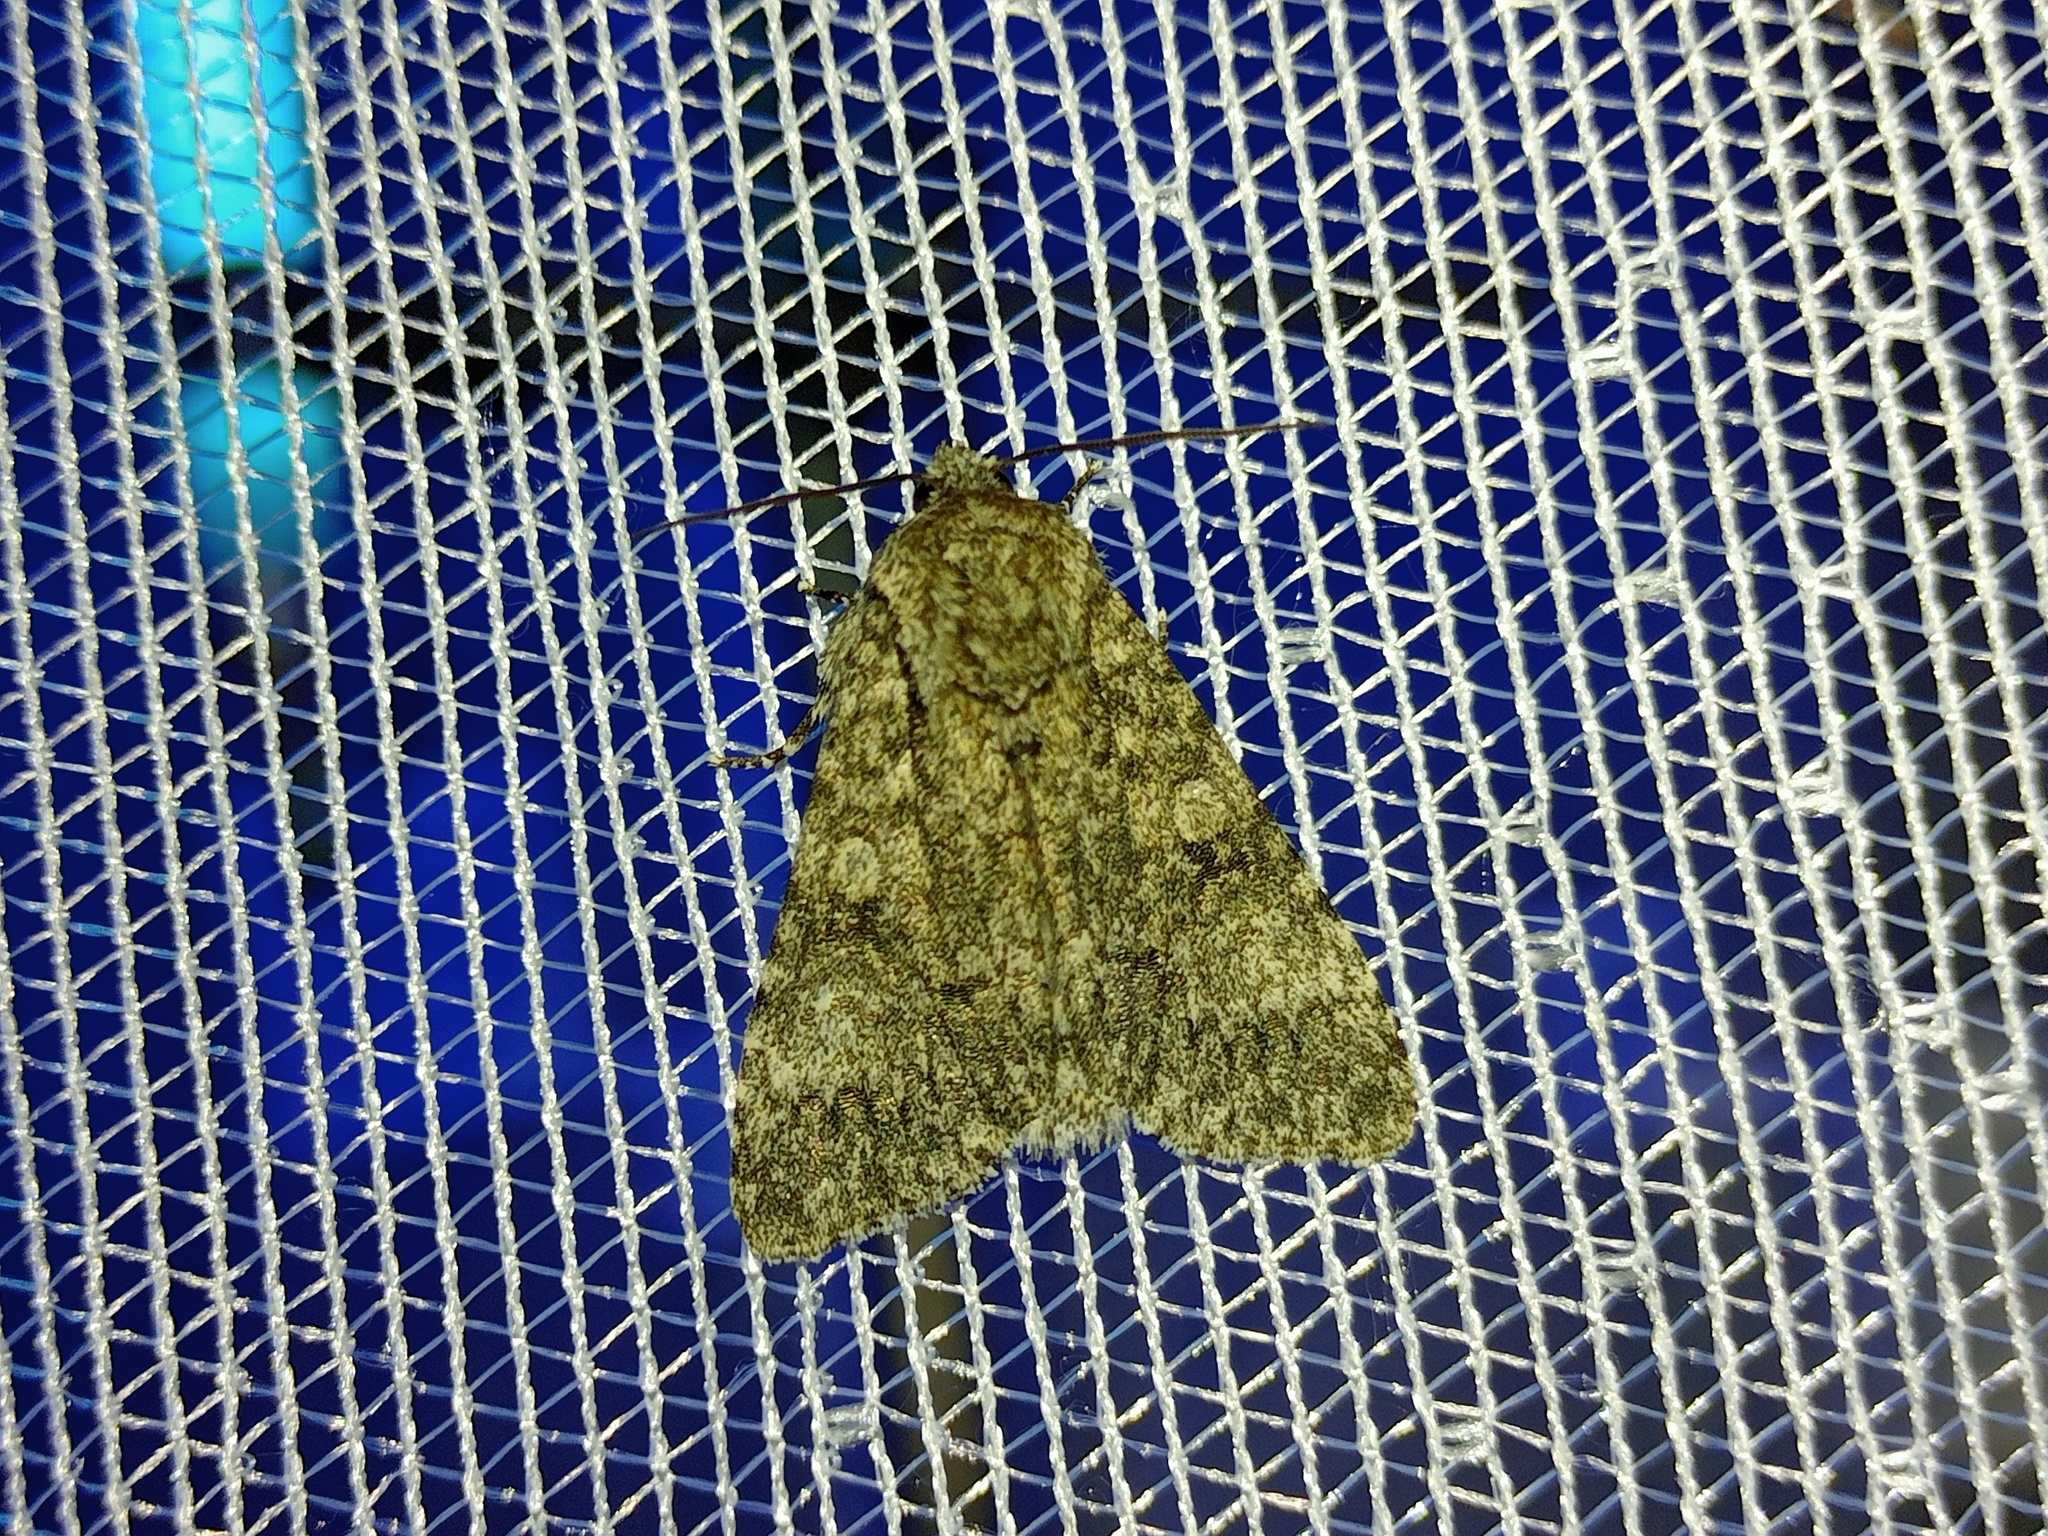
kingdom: Animalia
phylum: Arthropoda
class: Insecta
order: Lepidoptera
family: Noctuidae
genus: Acronicta
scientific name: Acronicta megacephala
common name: Poplar grey
